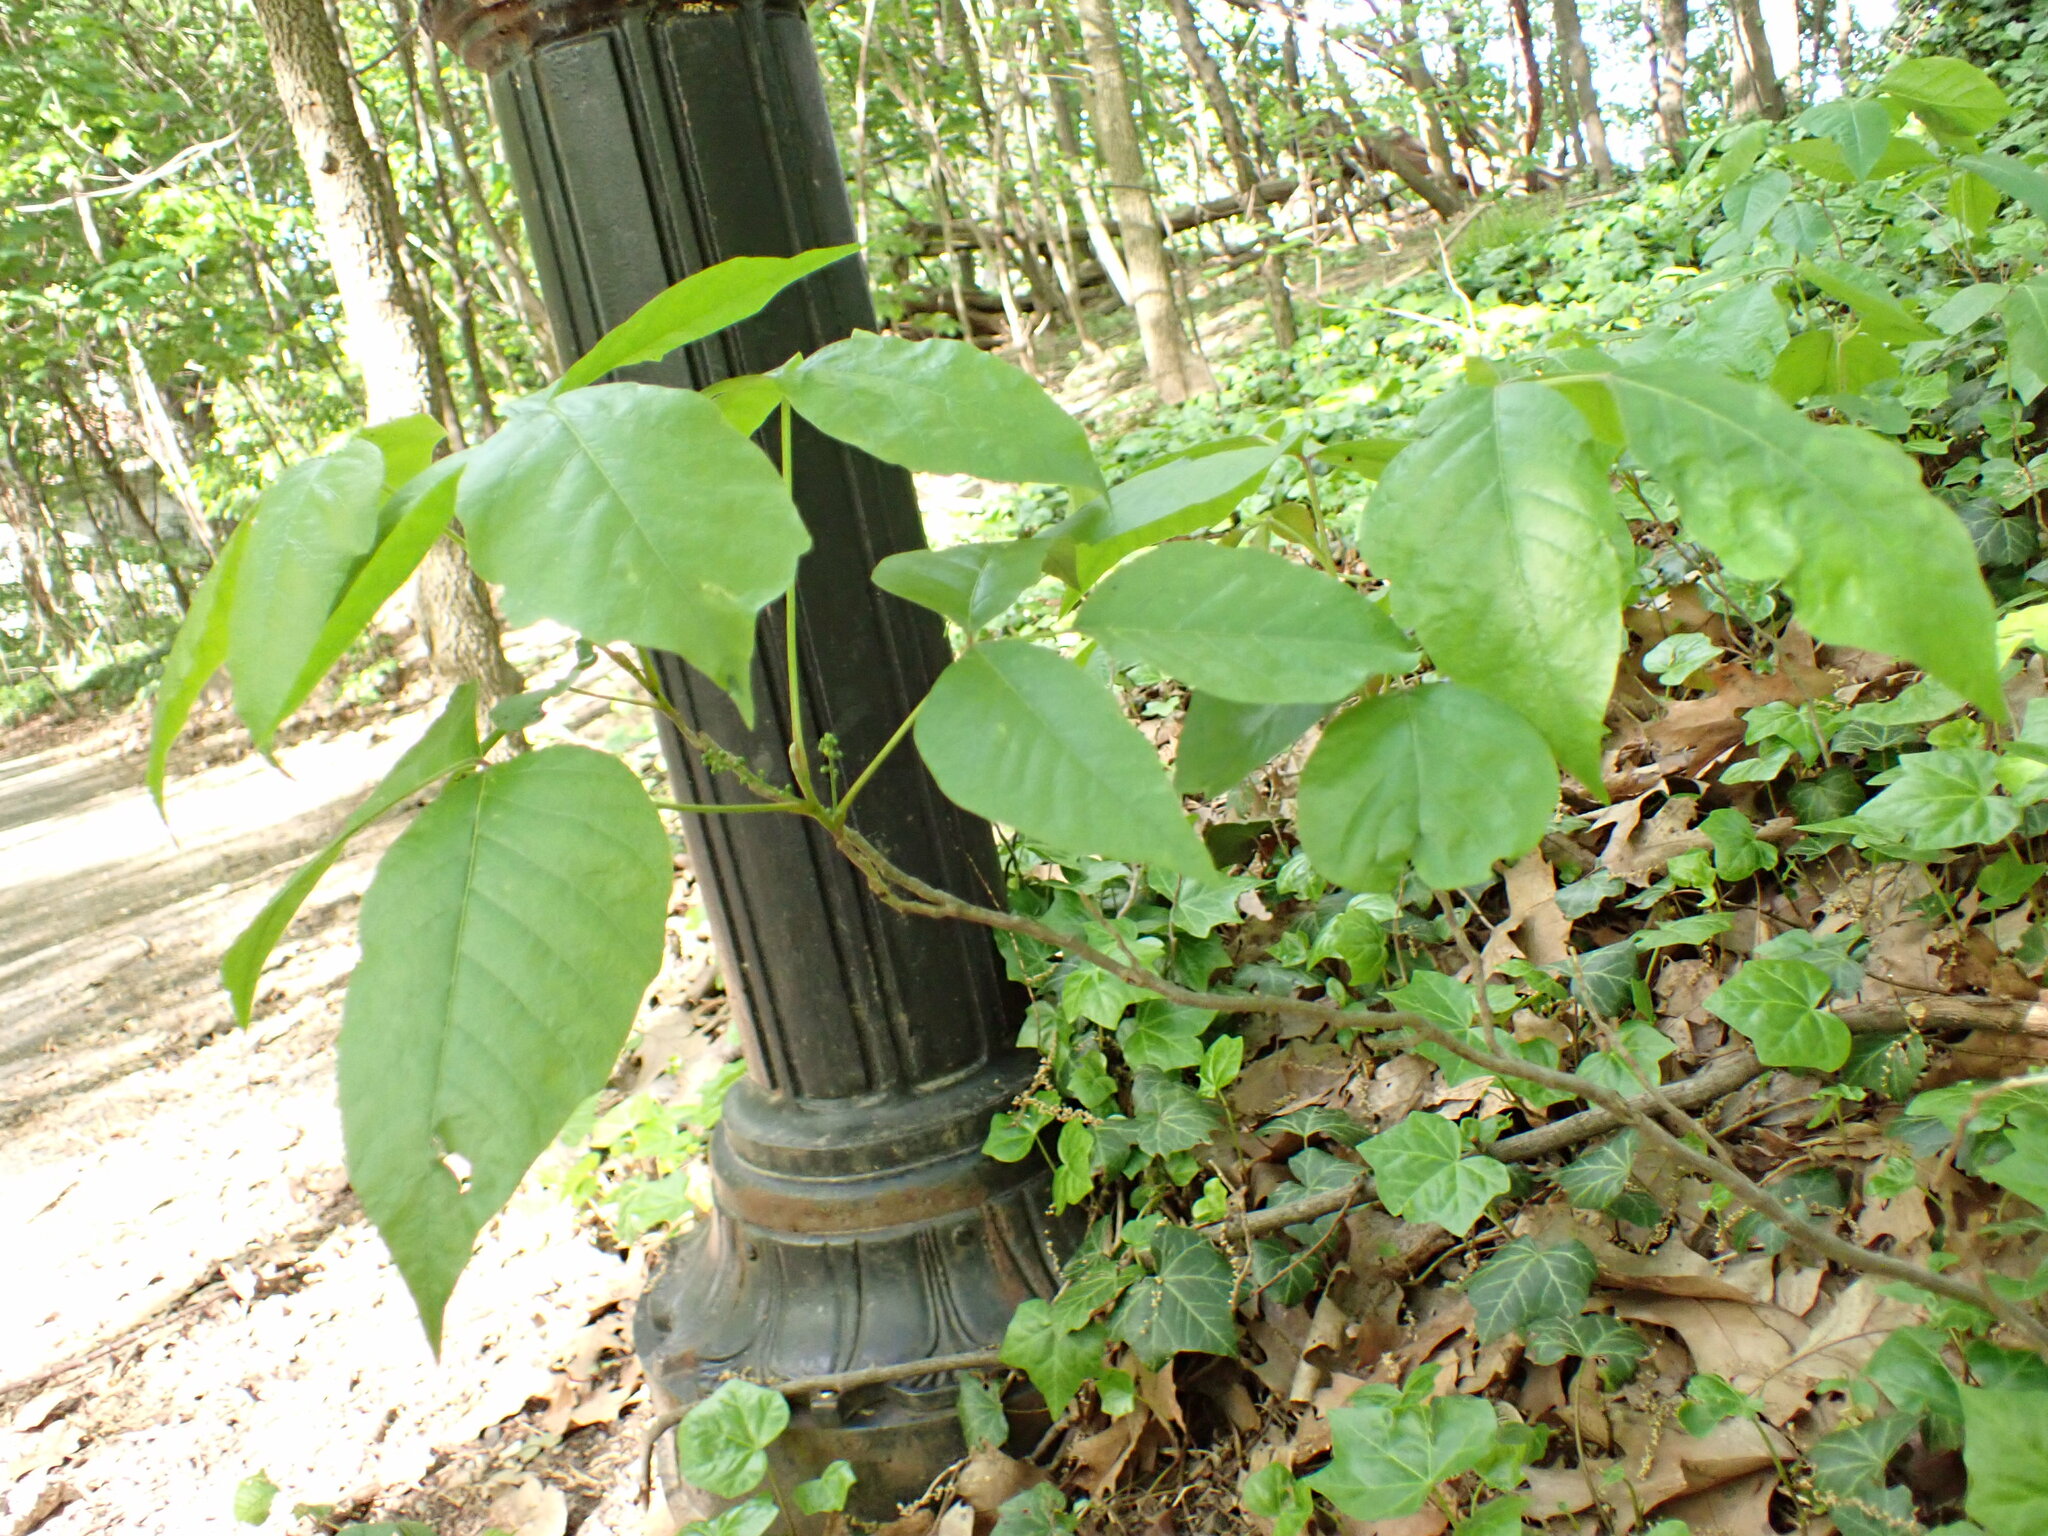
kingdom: Plantae
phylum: Tracheophyta
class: Magnoliopsida
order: Sapindales
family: Anacardiaceae
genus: Toxicodendron
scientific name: Toxicodendron radicans
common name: Poison ivy
